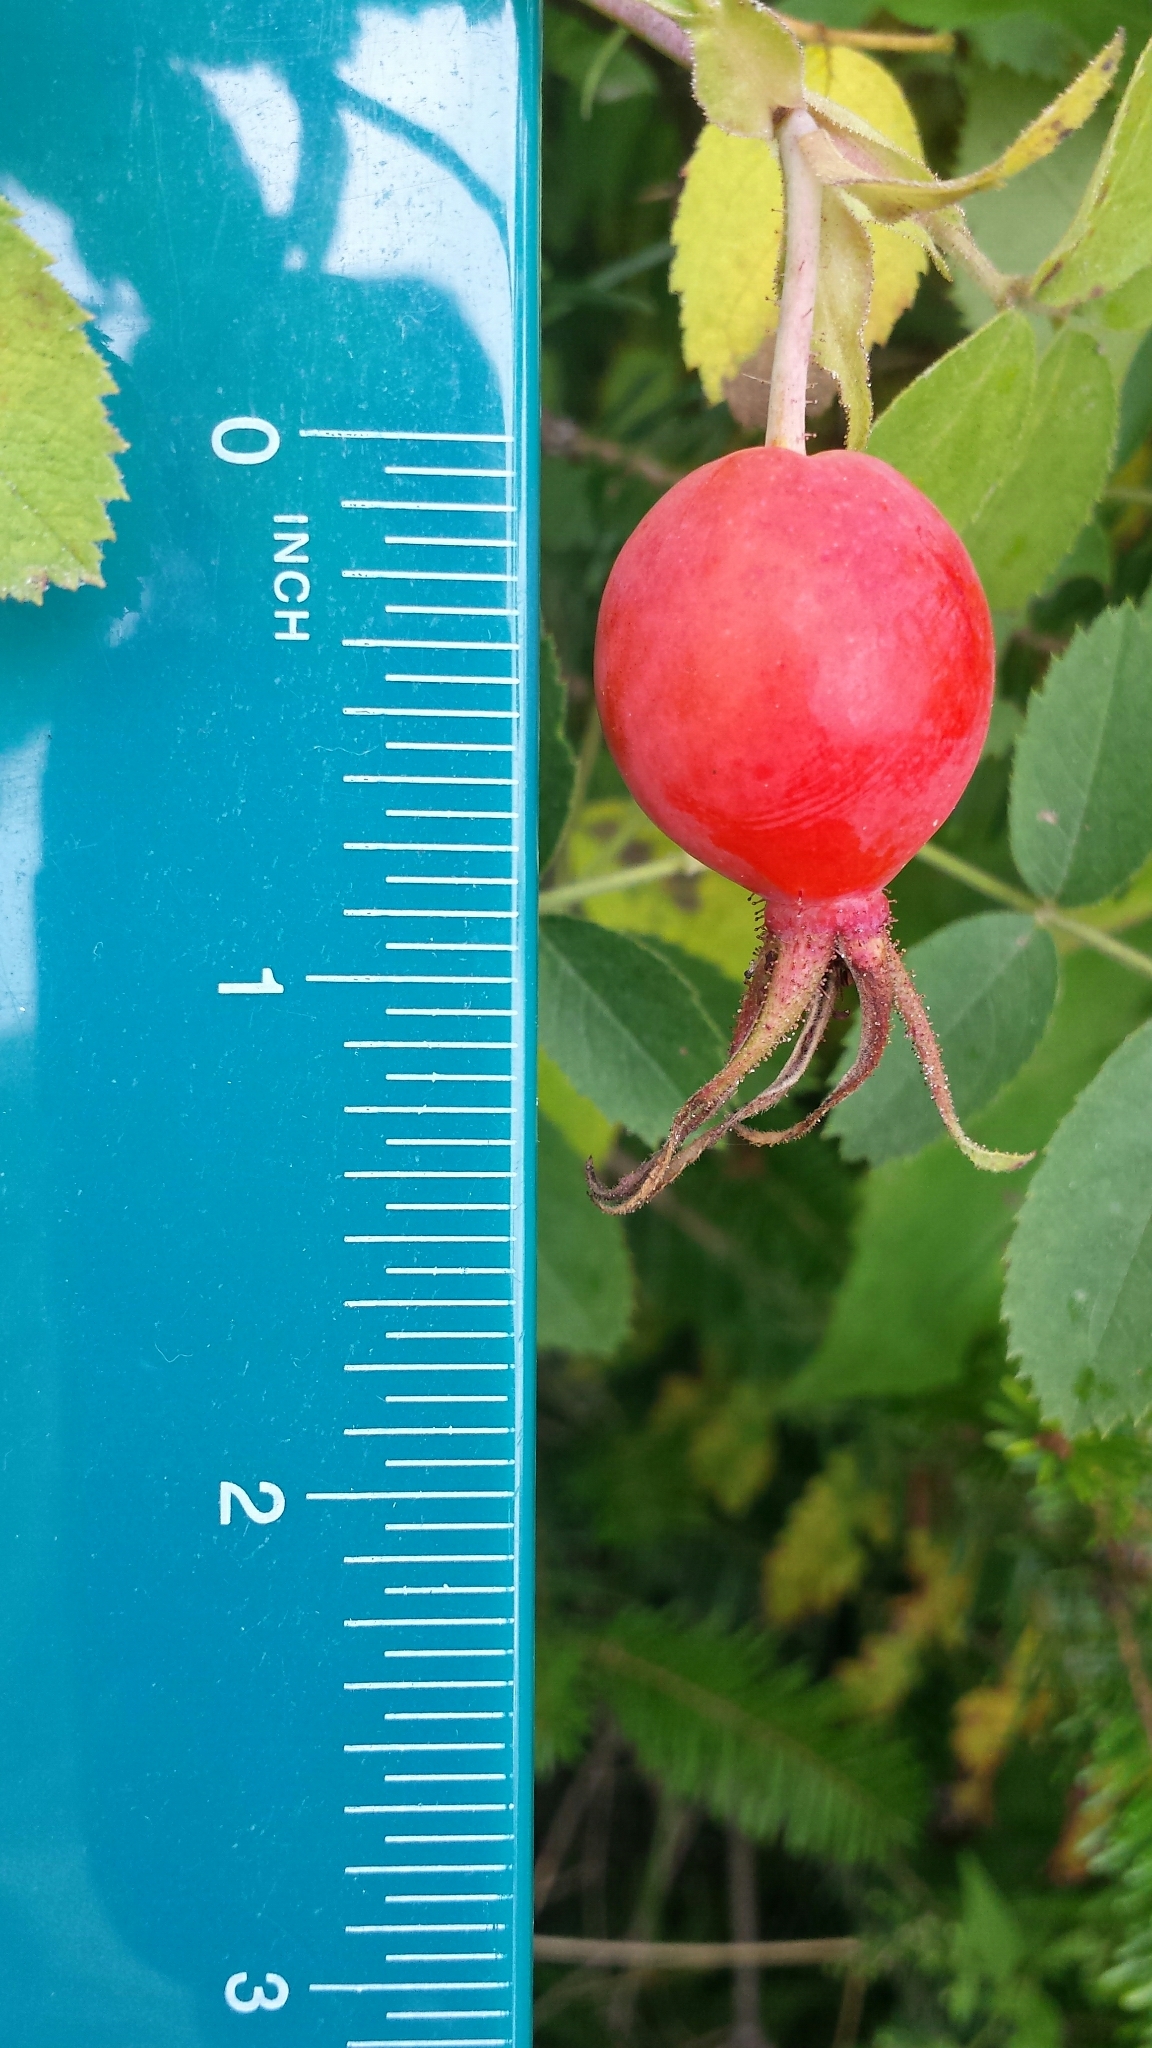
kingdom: Plantae
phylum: Tracheophyta
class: Magnoliopsida
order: Rosales
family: Rosaceae
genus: Rosa
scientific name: Rosa sherardii
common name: Sherard's downy rose
